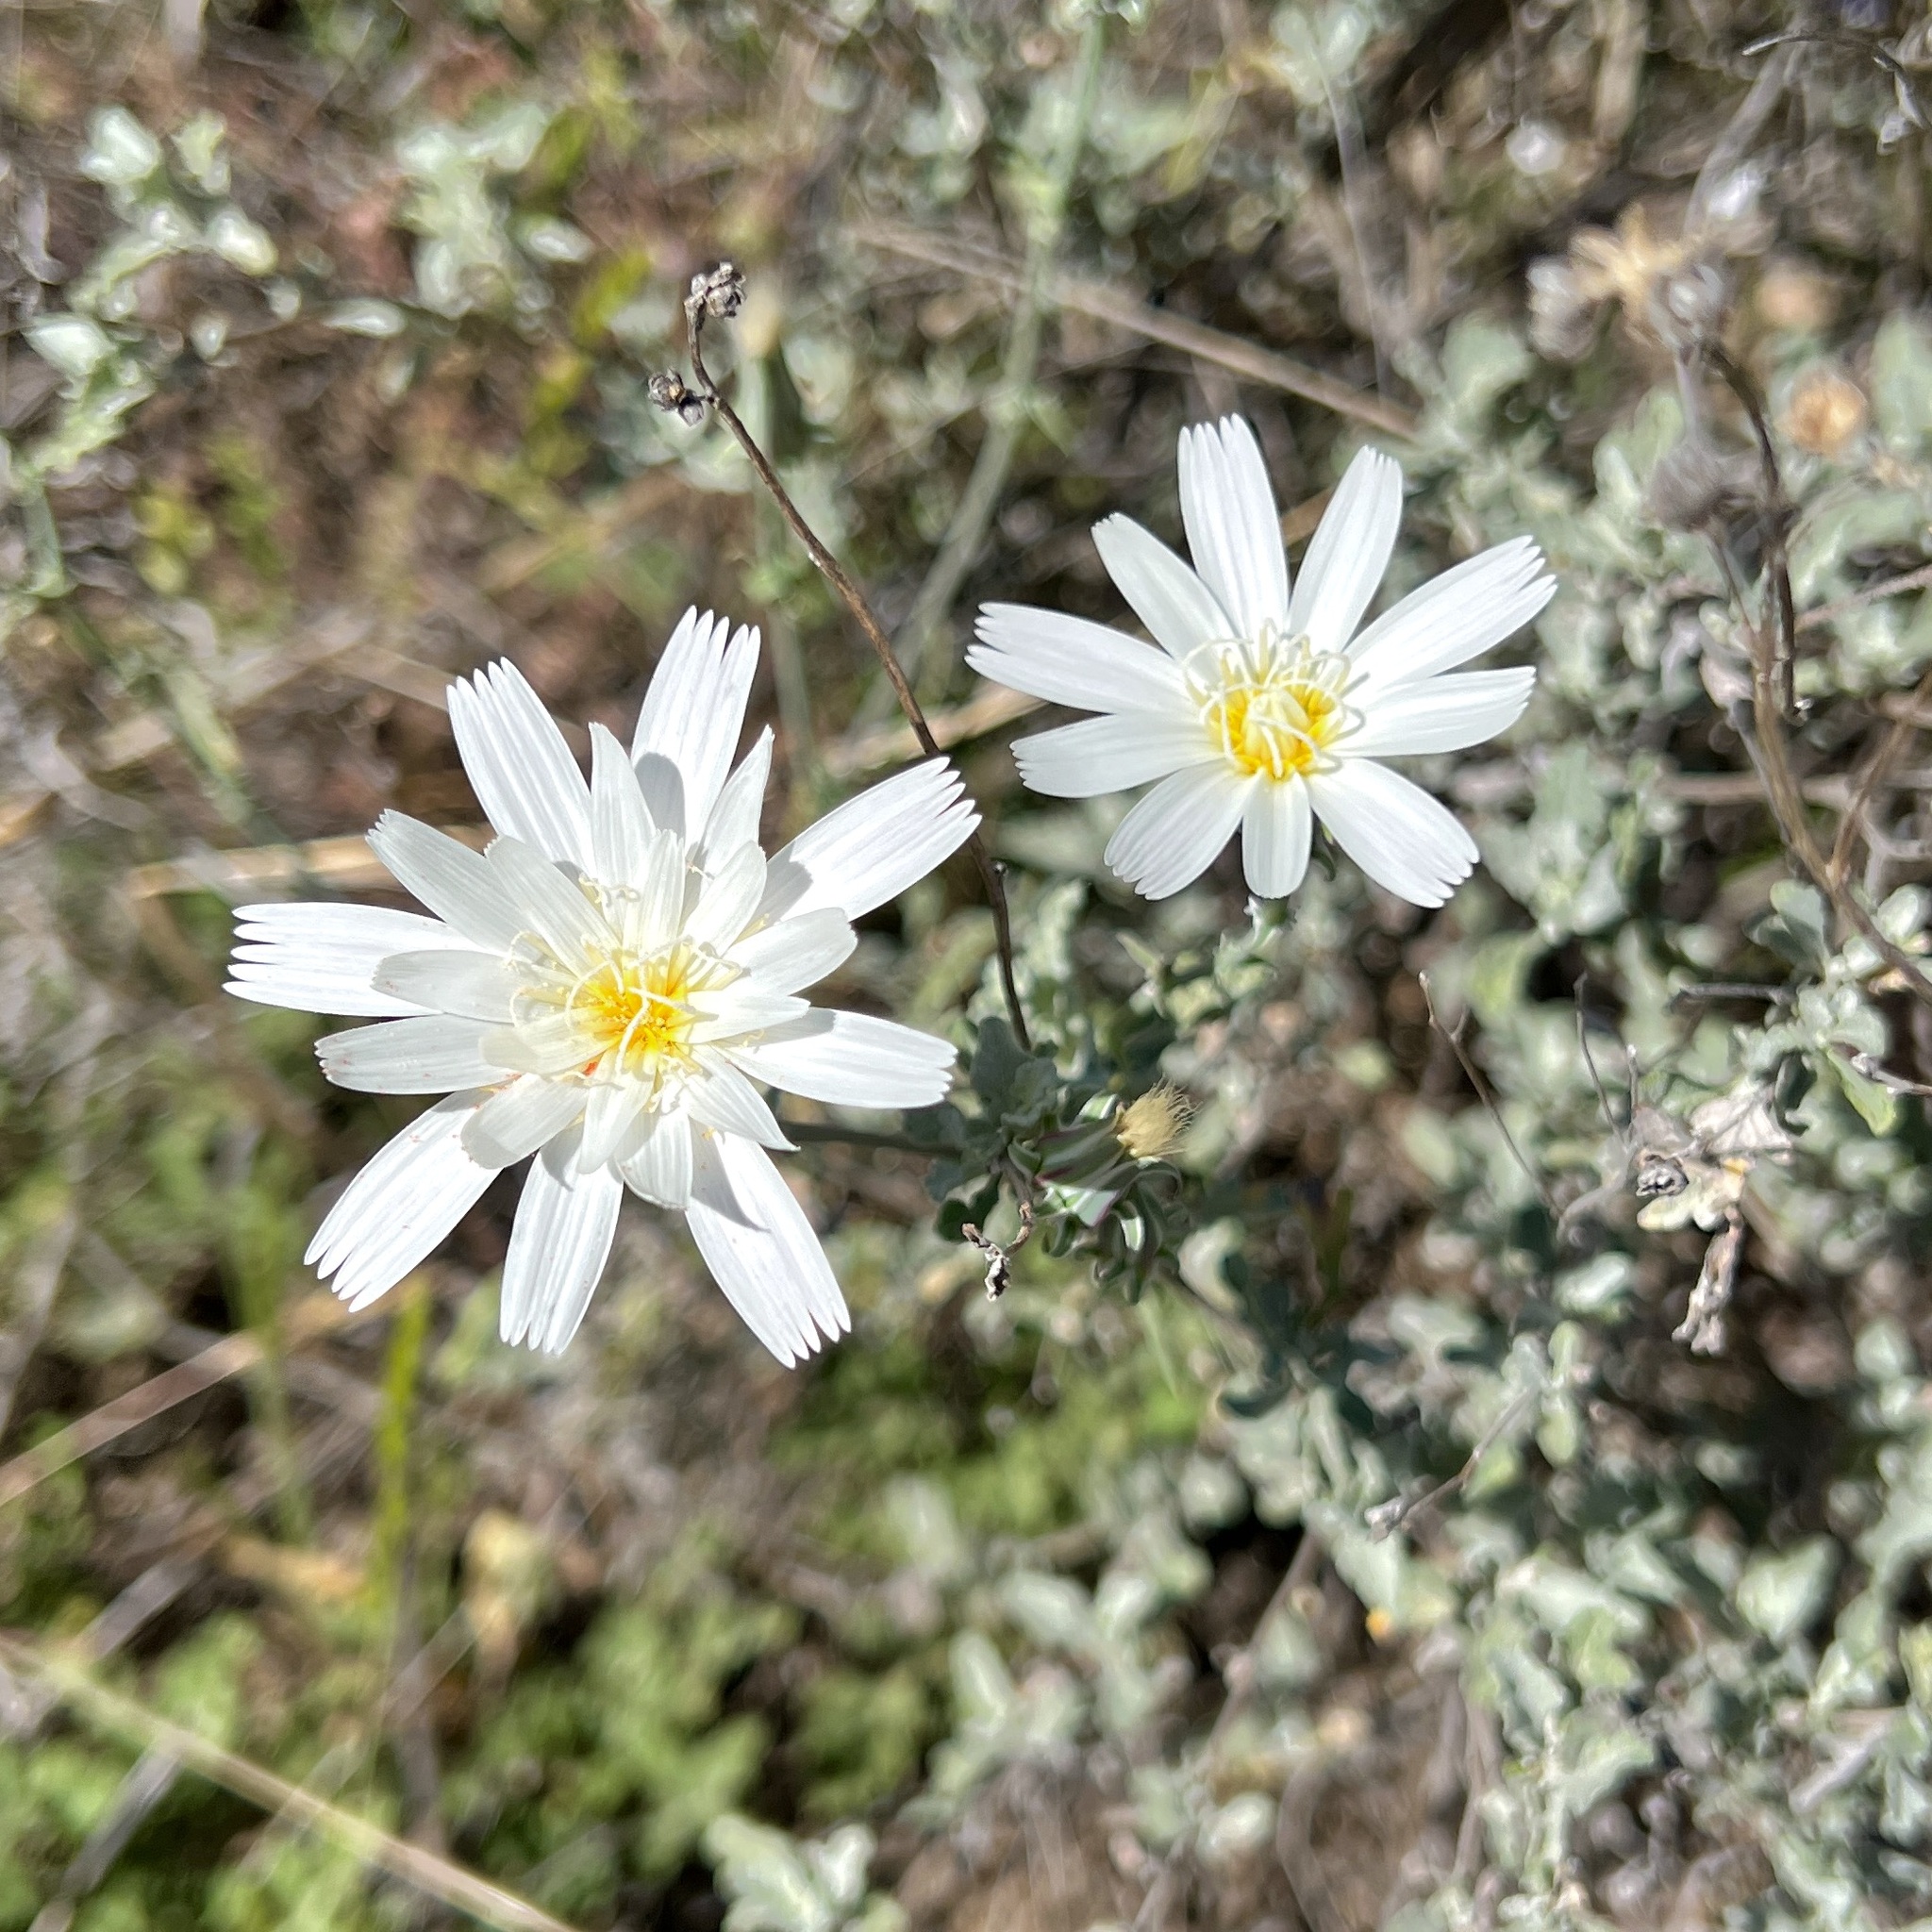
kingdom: Plantae
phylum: Tracheophyta
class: Magnoliopsida
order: Asterales
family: Asteraceae
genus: Rafinesquia
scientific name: Rafinesquia neomexicana
